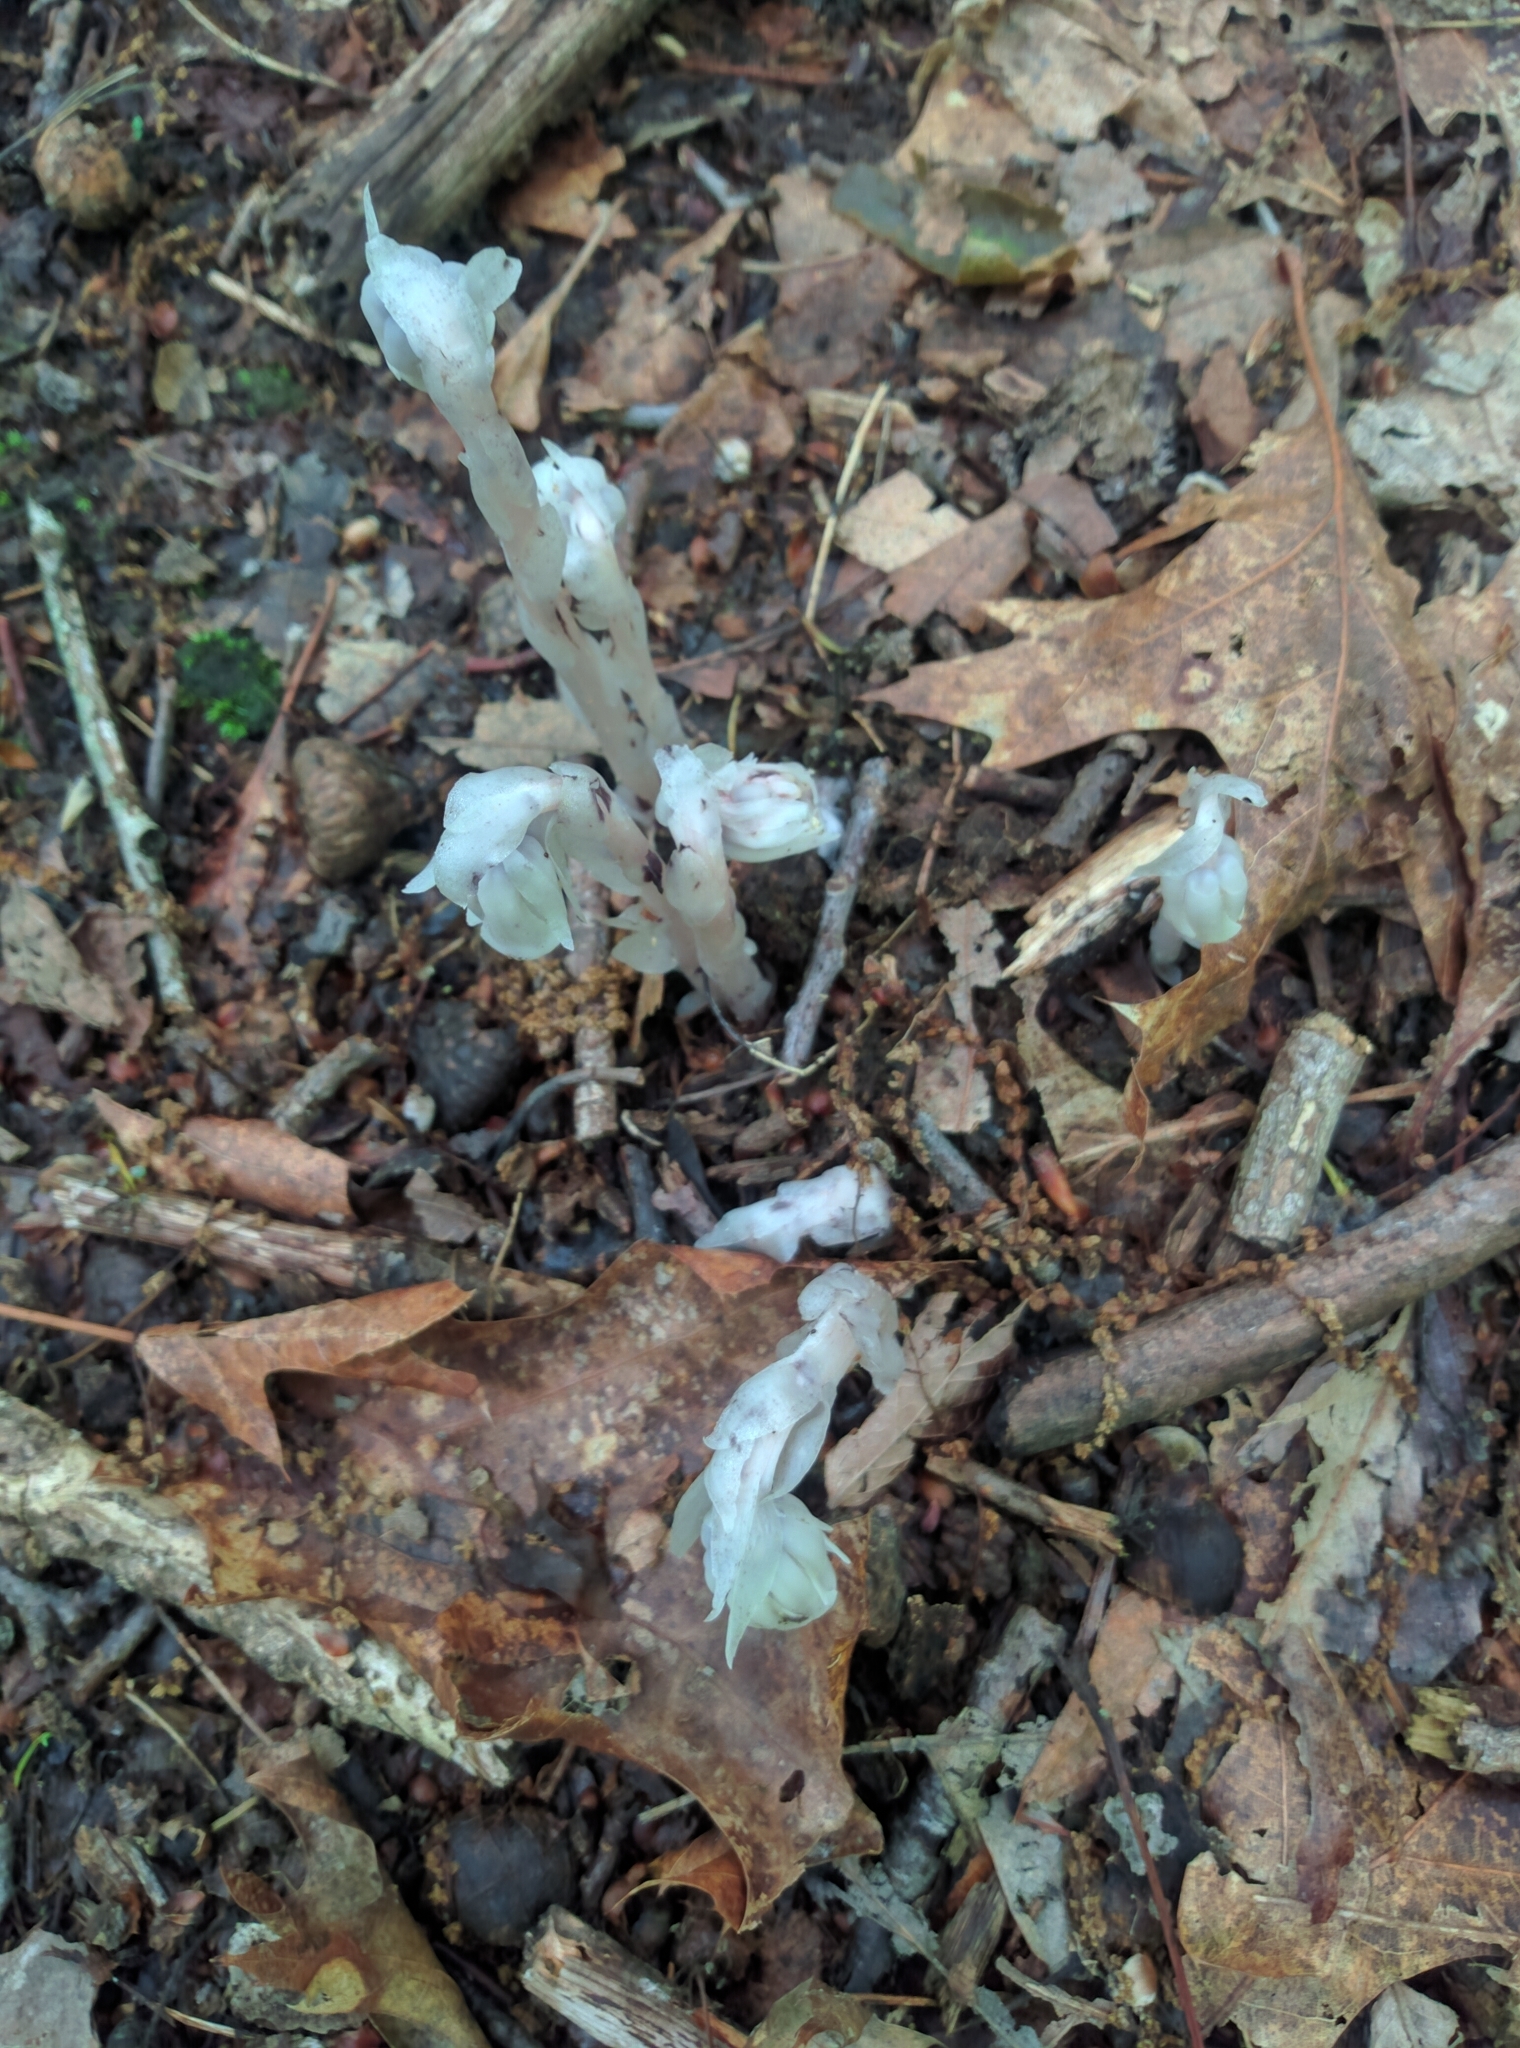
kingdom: Plantae
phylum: Tracheophyta
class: Magnoliopsida
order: Ericales
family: Ericaceae
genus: Monotropa
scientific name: Monotropa uniflora
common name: Convulsion root
